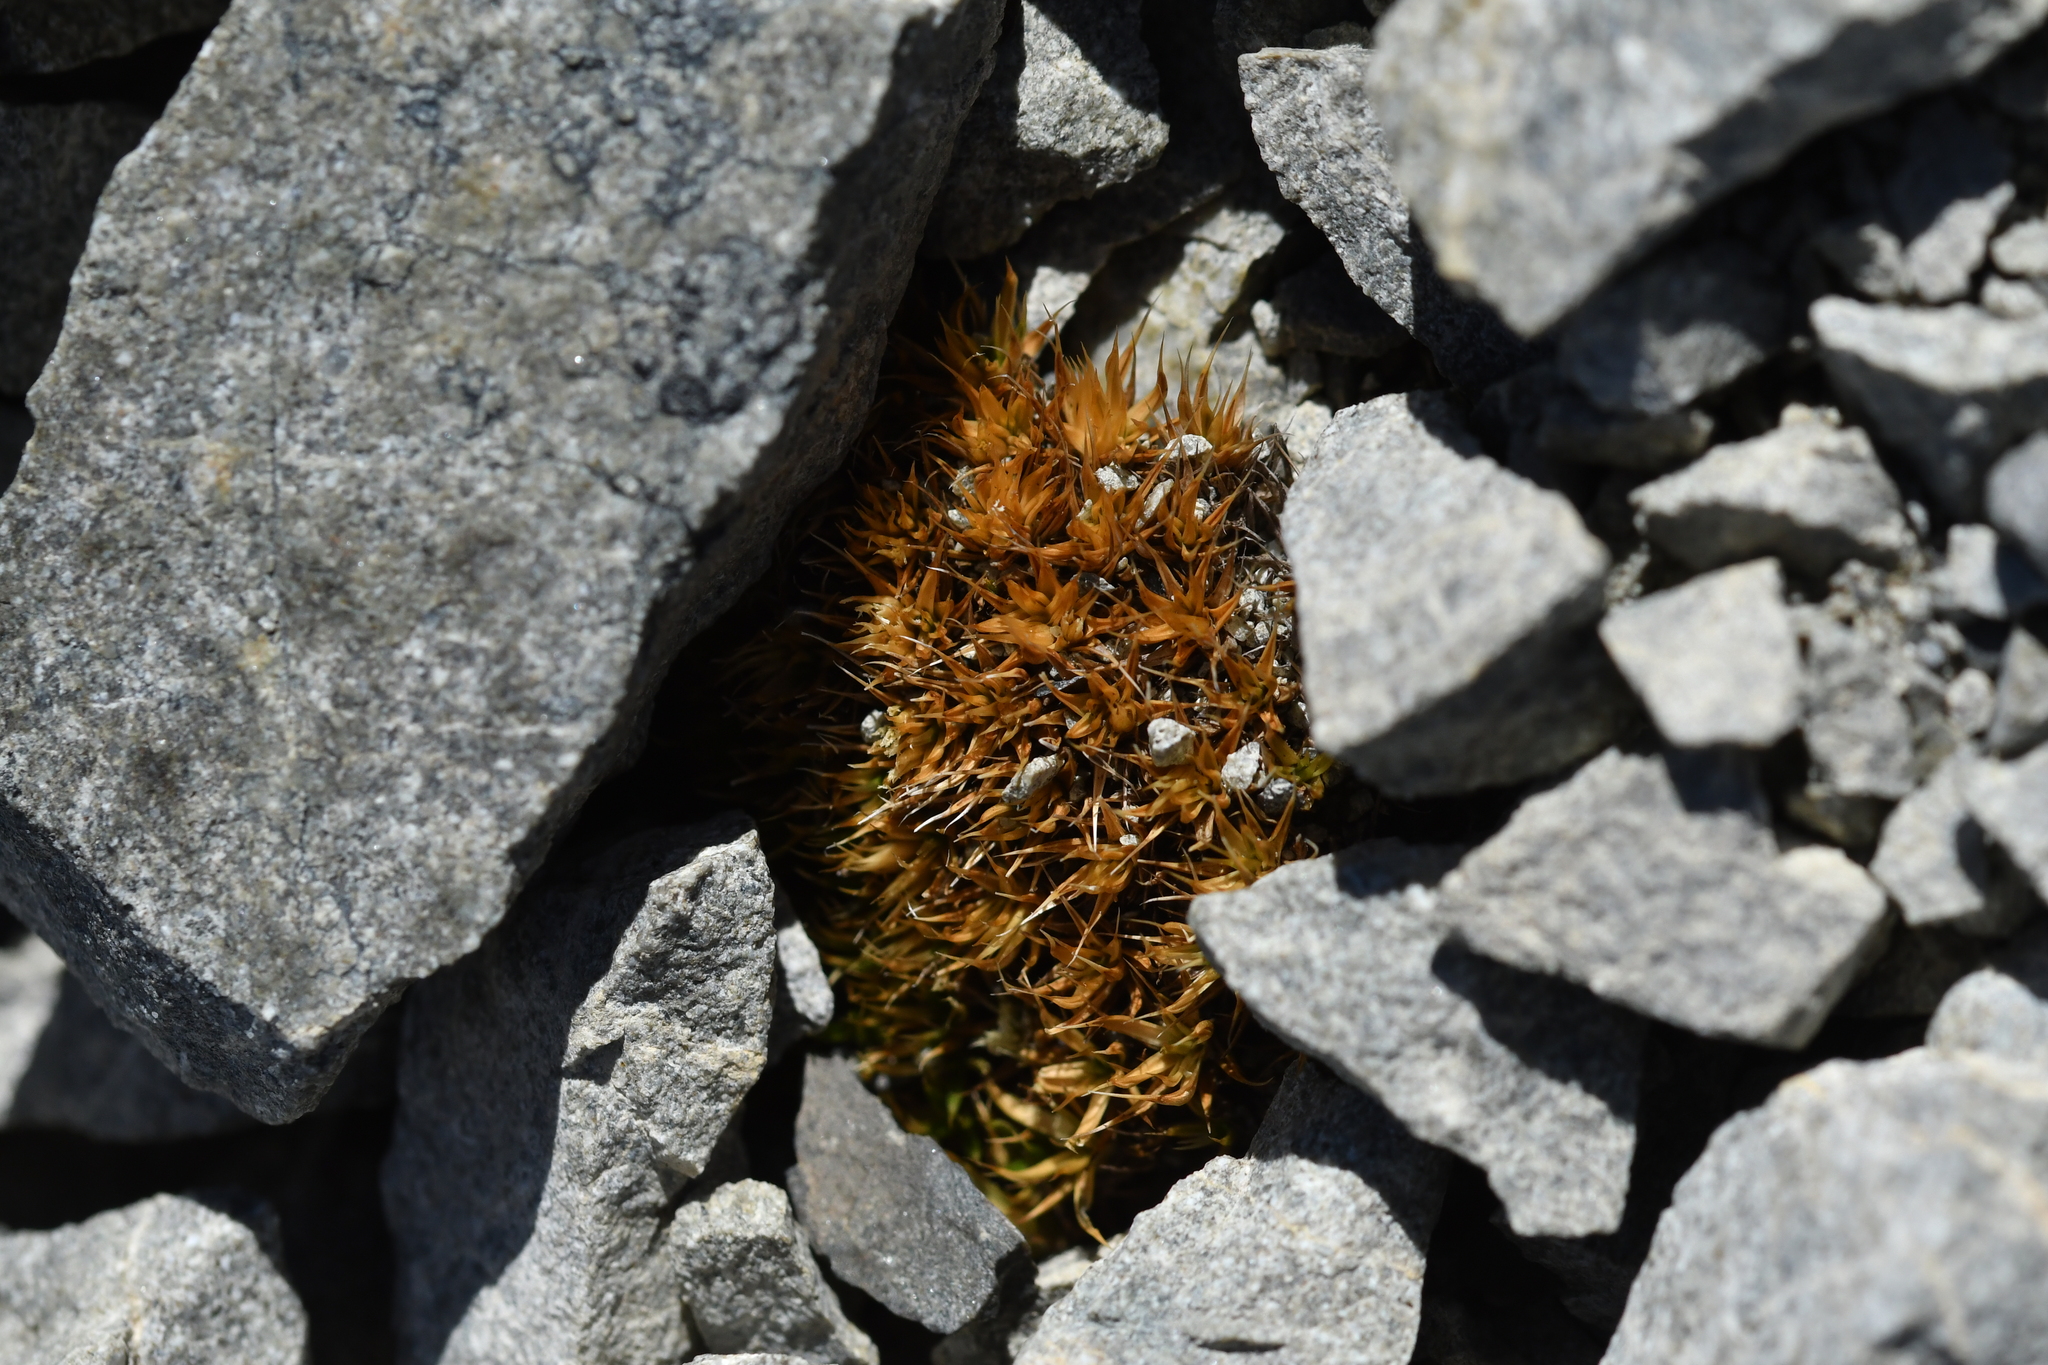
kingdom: Plantae
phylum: Tracheophyta
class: Magnoliopsida
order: Caryophyllales
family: Caryophyllaceae
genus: Colobanthus
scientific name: Colobanthus acicularis
